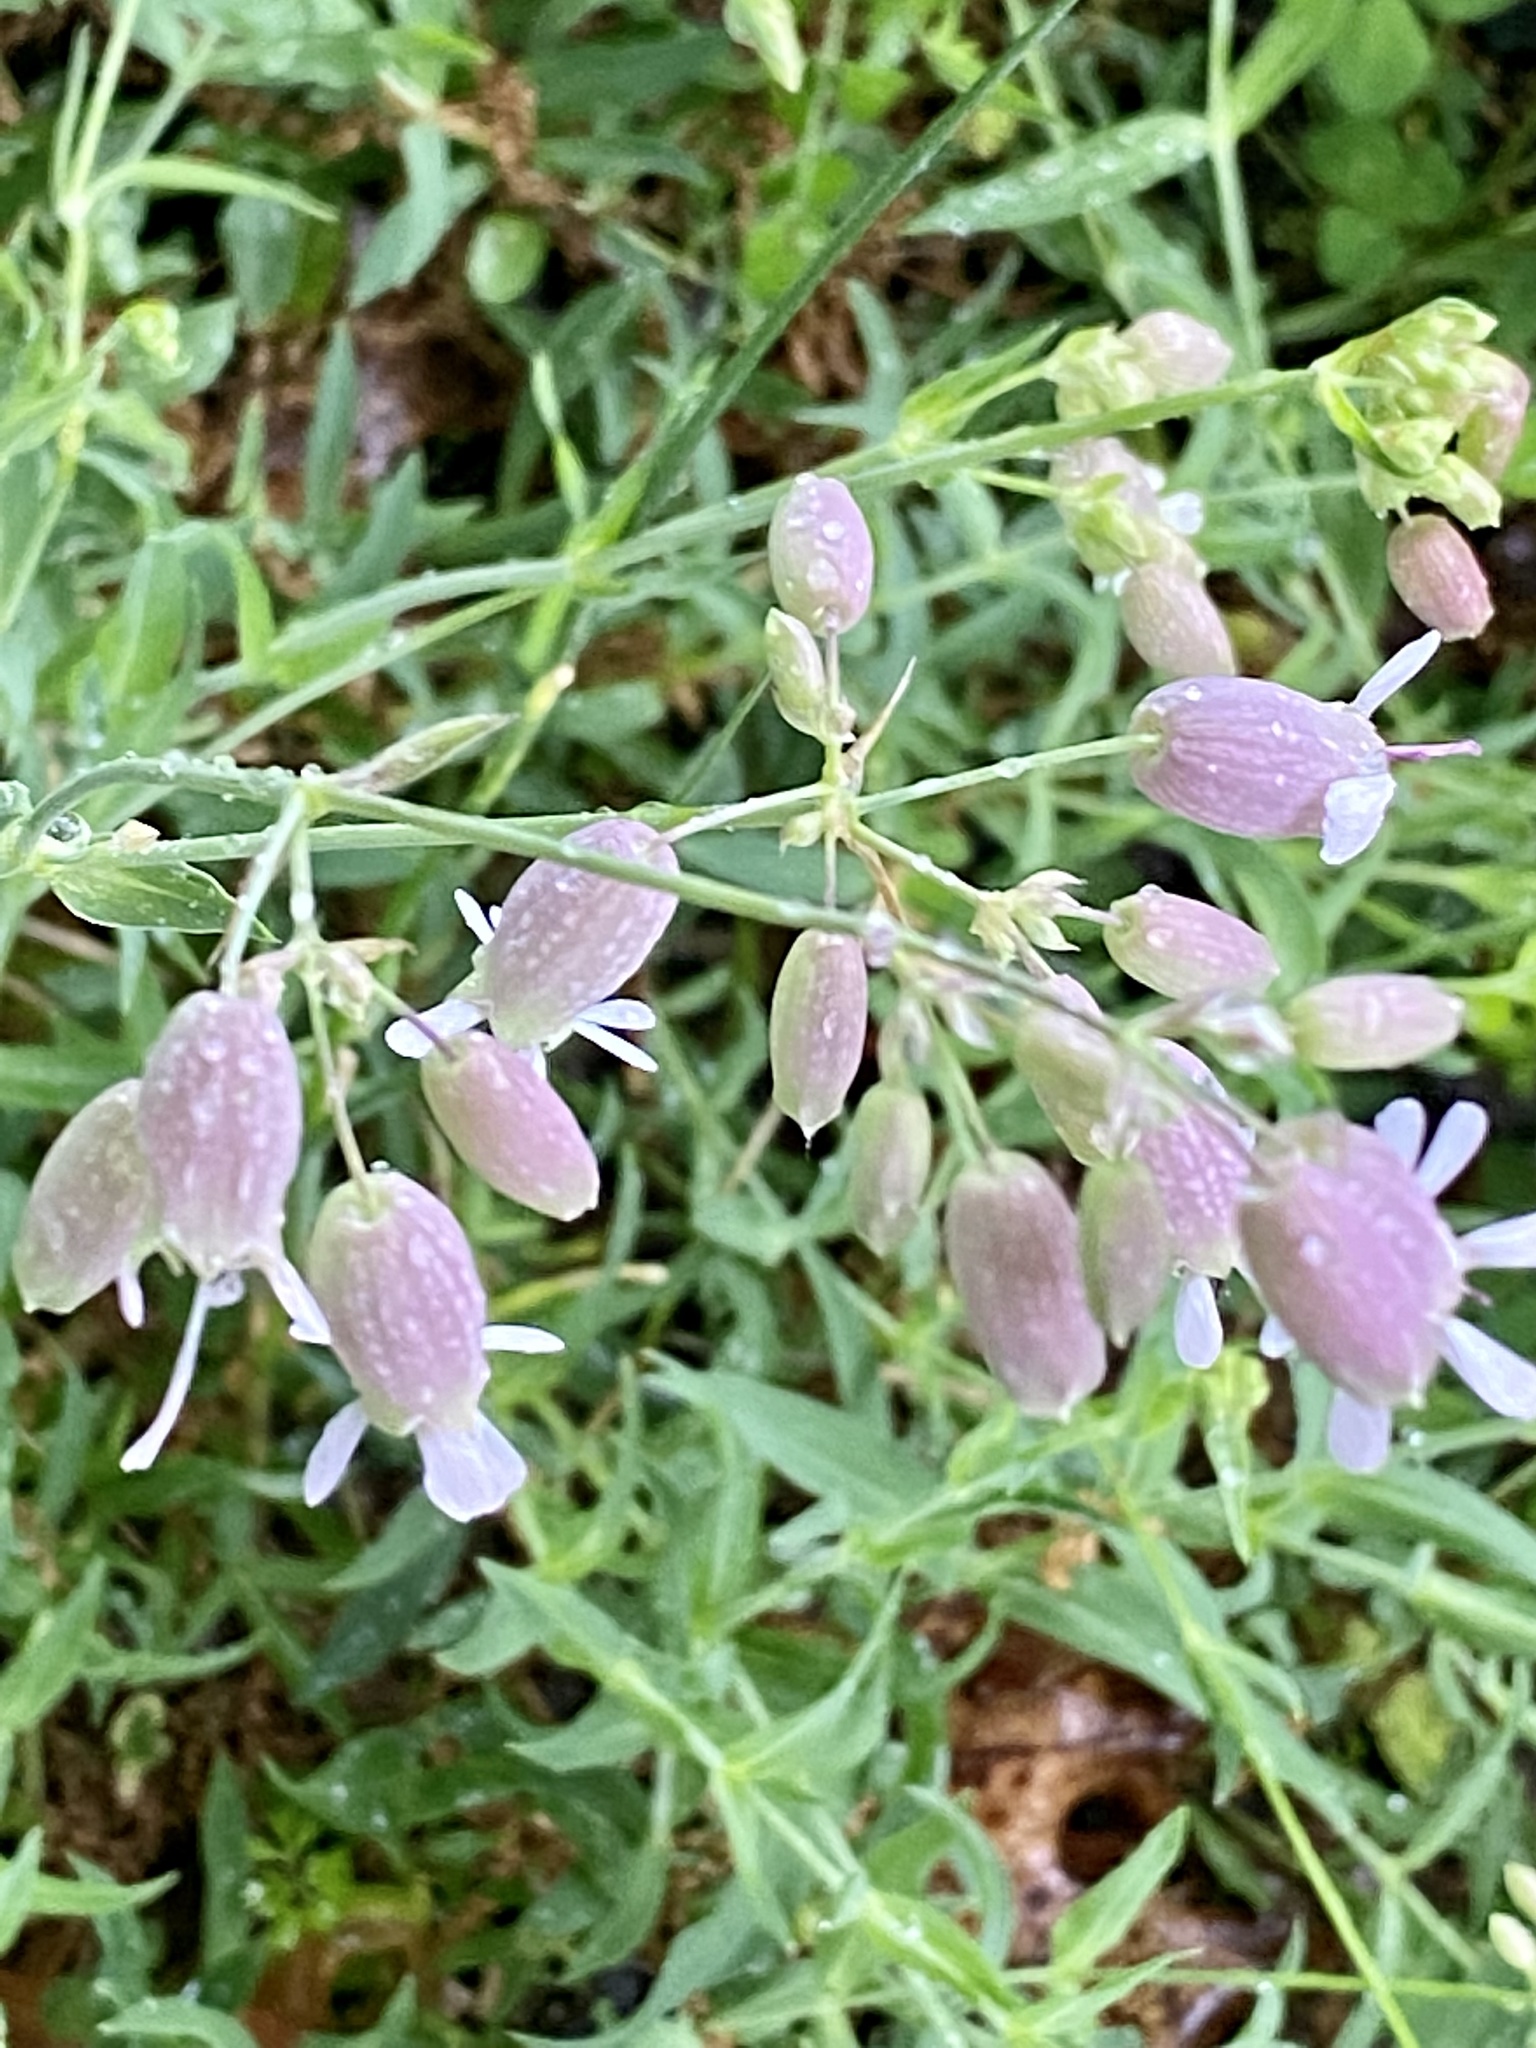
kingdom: Plantae
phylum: Tracheophyta
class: Magnoliopsida
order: Caryophyllales
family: Caryophyllaceae
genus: Silene
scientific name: Silene vulgaris
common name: Bladder campion
